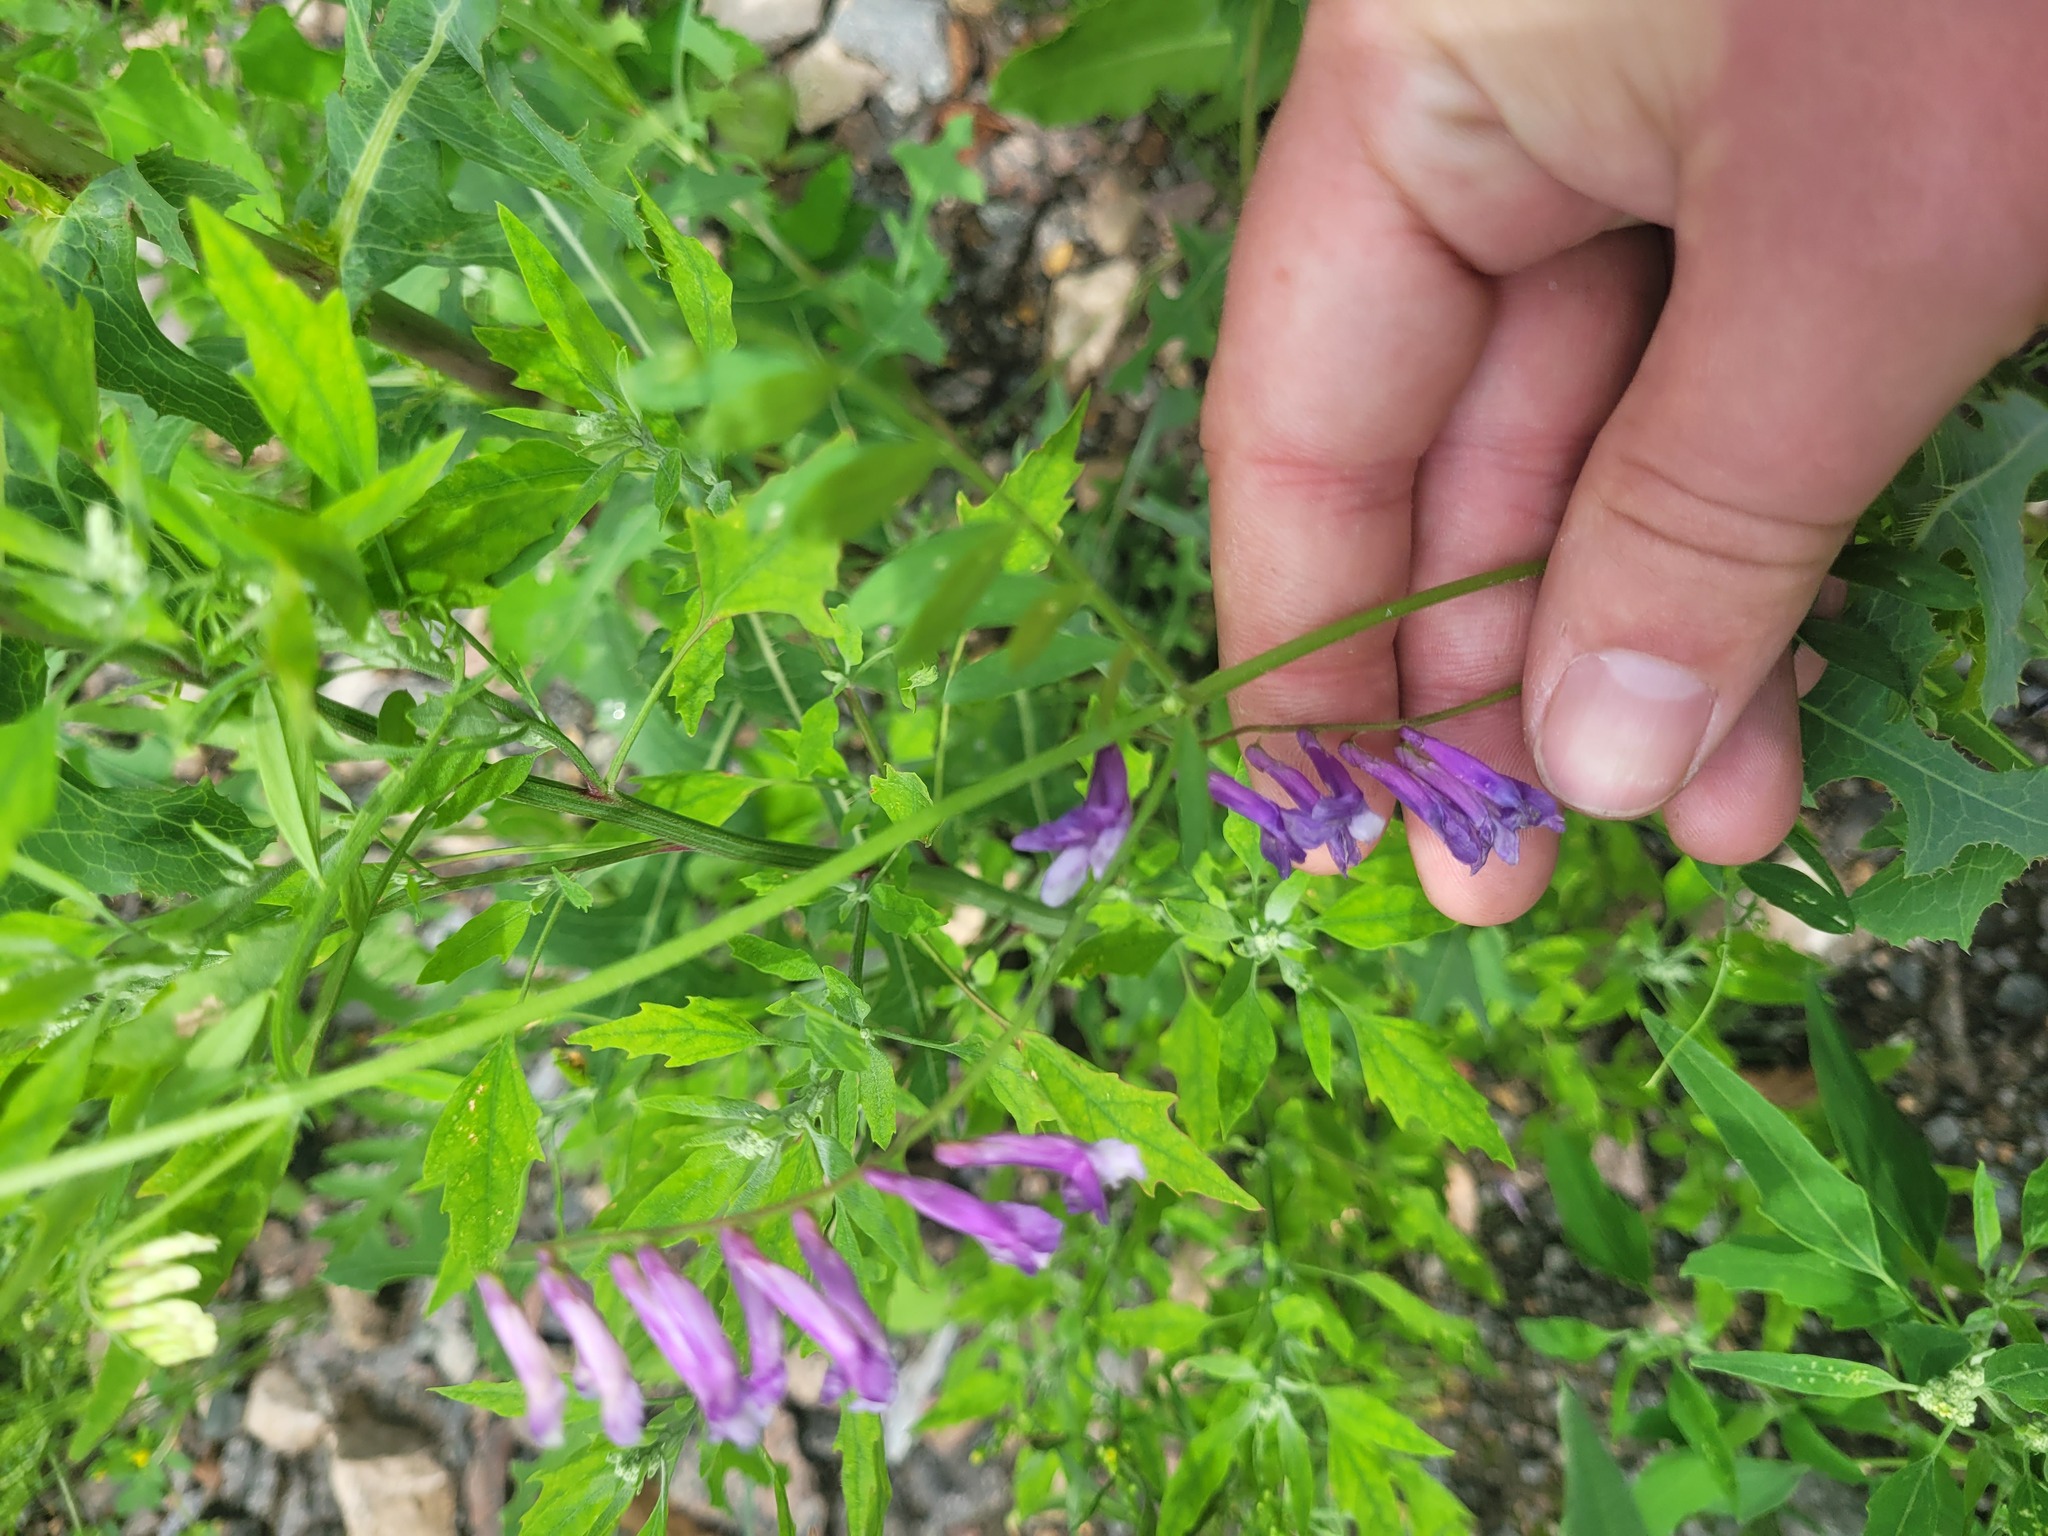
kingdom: Plantae
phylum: Tracheophyta
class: Magnoliopsida
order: Fabales
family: Fabaceae
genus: Vicia
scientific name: Vicia villosa
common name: Fodder vetch
